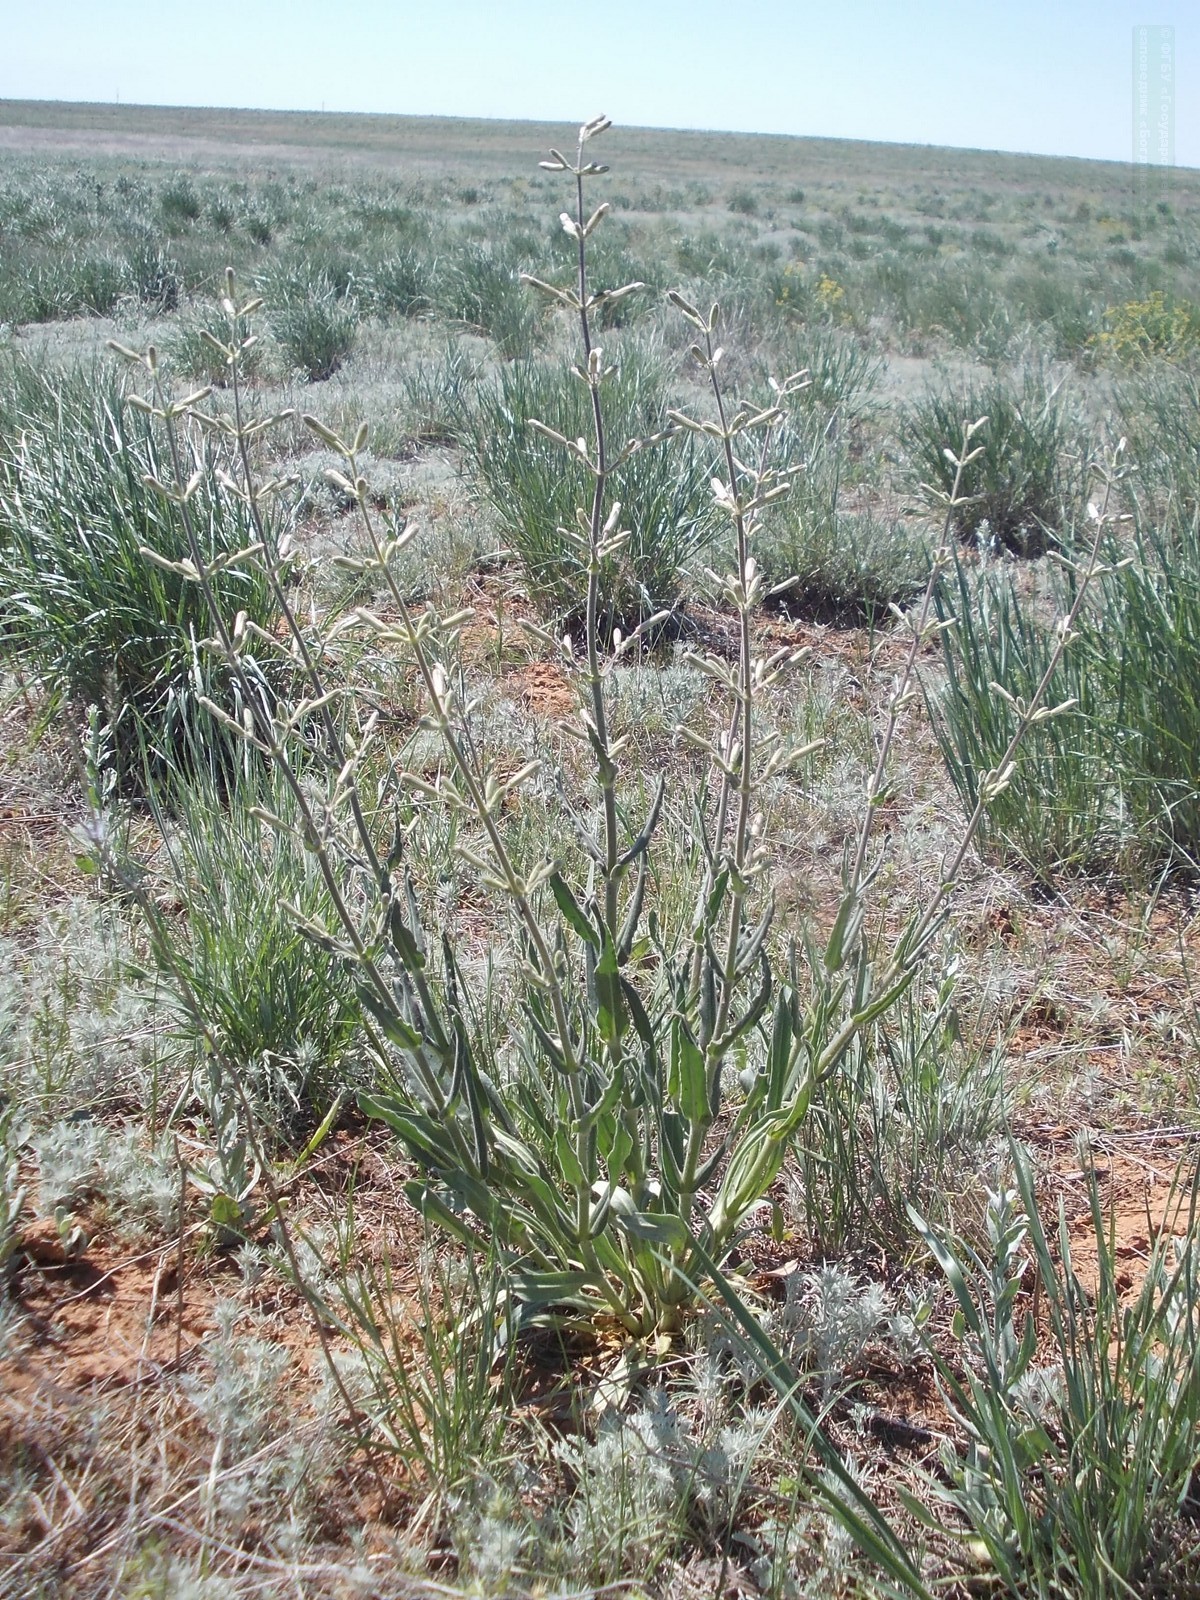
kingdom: Plantae
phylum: Tracheophyta
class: Magnoliopsida
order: Caryophyllales
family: Caryophyllaceae
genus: Silene
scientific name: Silene viscosa
